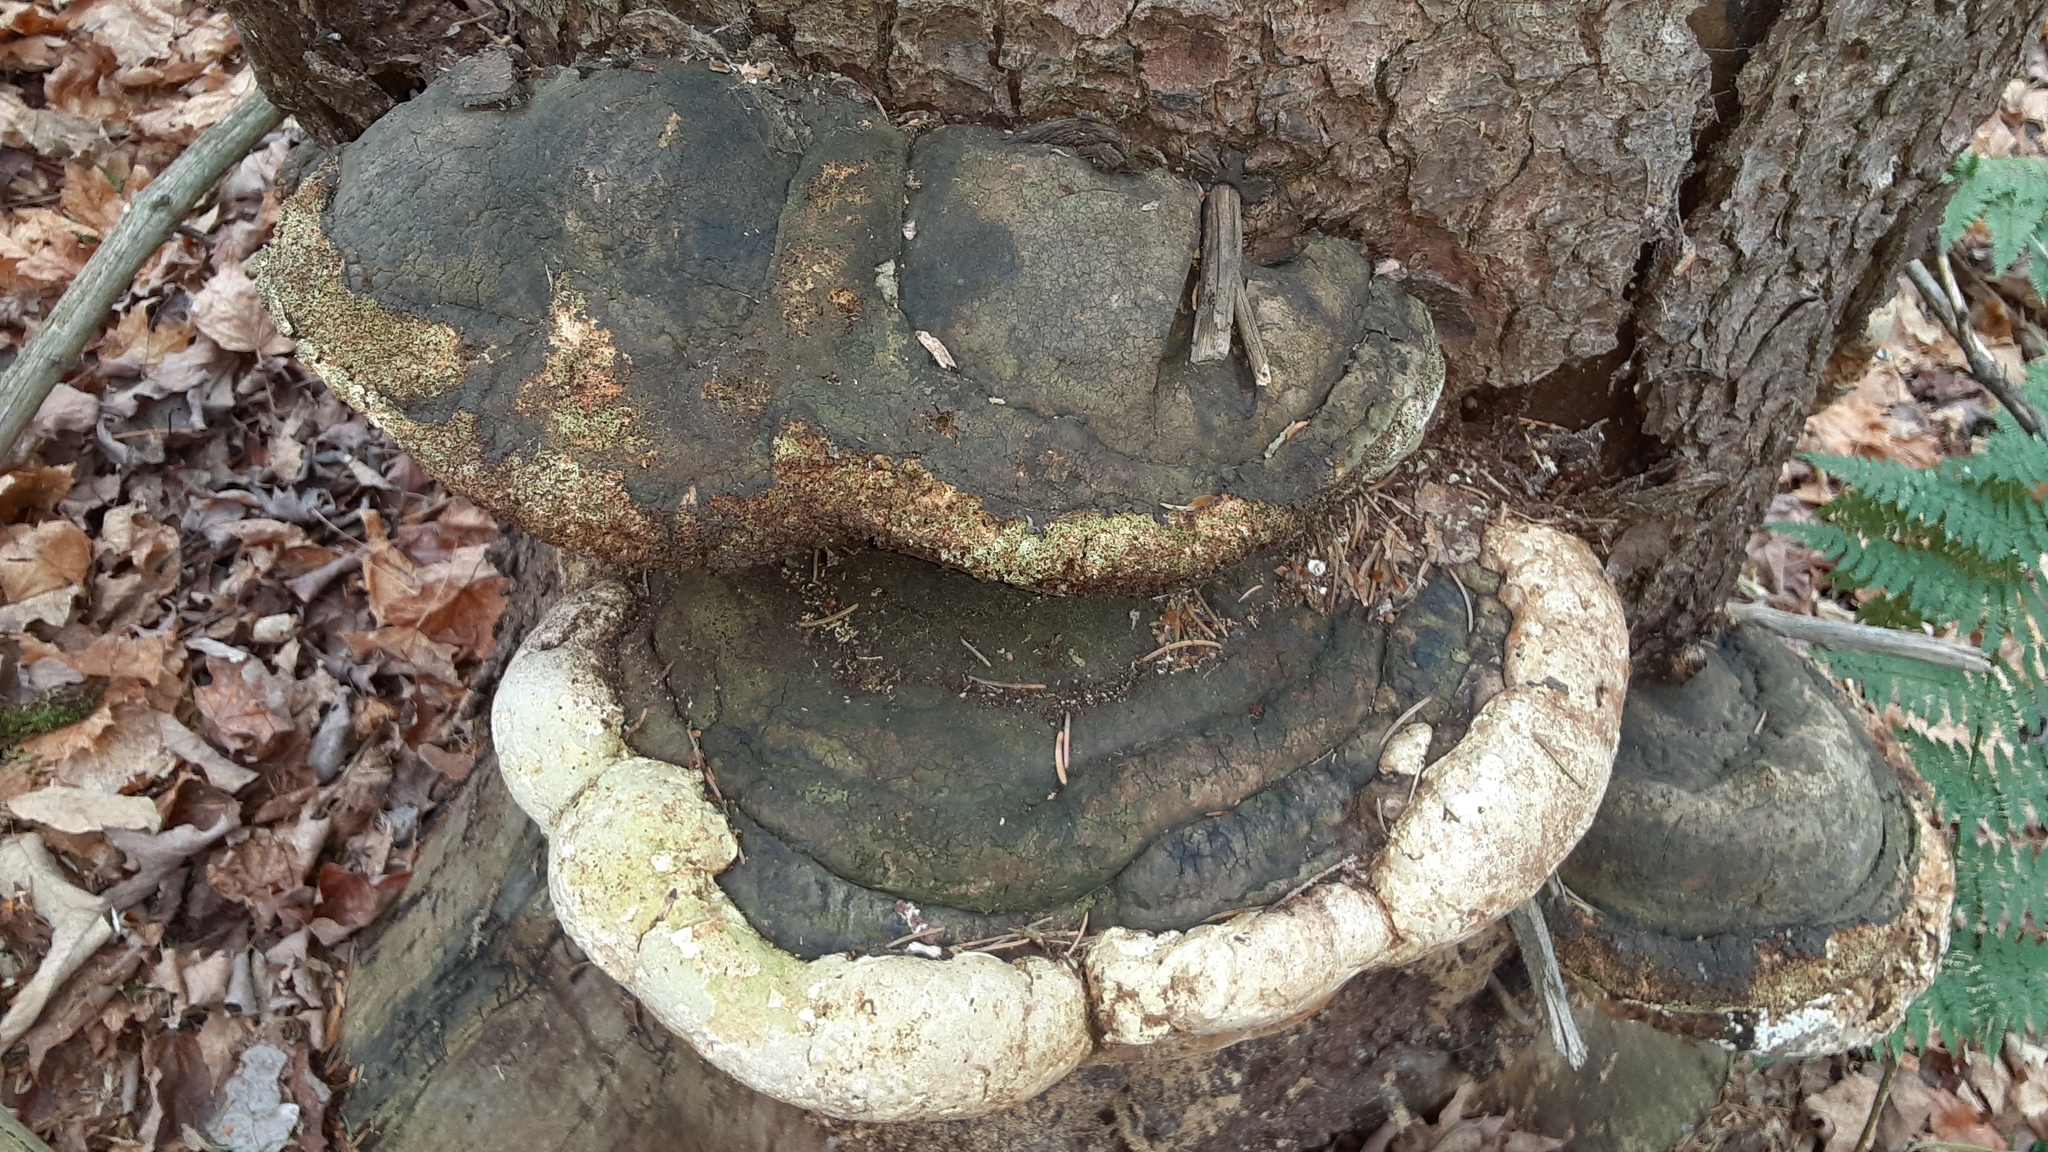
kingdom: Fungi
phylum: Basidiomycota
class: Agaricomycetes
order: Polyporales
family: Fomitopsidaceae
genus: Fomitopsis
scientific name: Fomitopsis ochracea
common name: American brown fomitopsis
